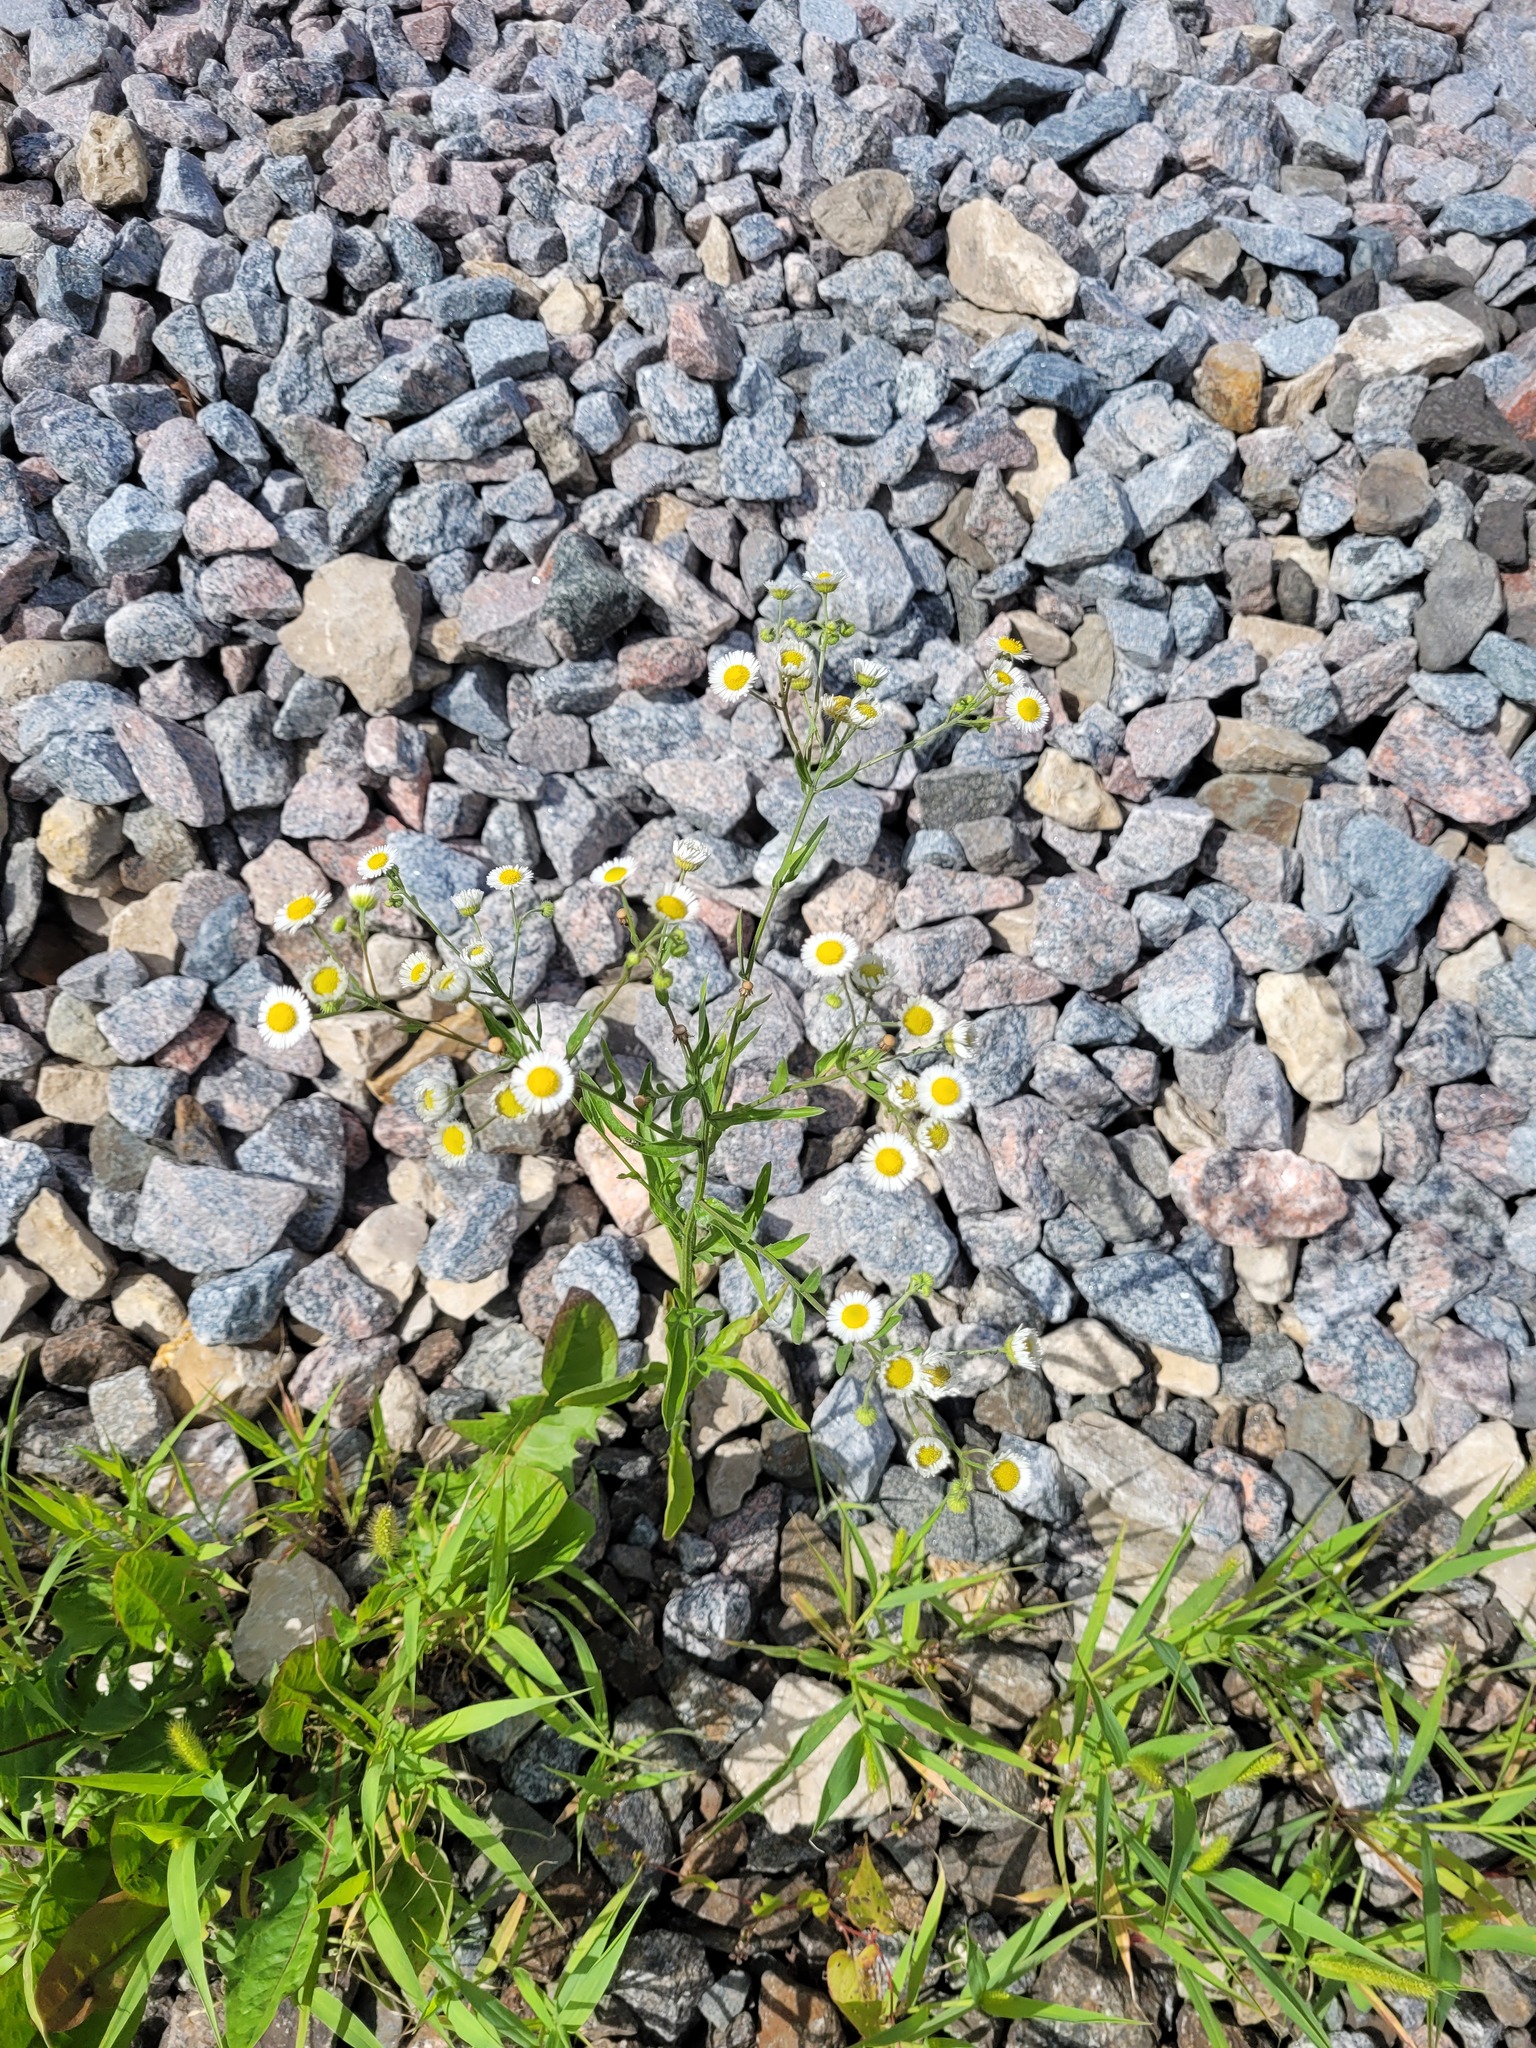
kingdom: Plantae
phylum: Tracheophyta
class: Magnoliopsida
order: Asterales
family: Asteraceae
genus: Erigeron
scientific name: Erigeron annuus
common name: Tall fleabane
